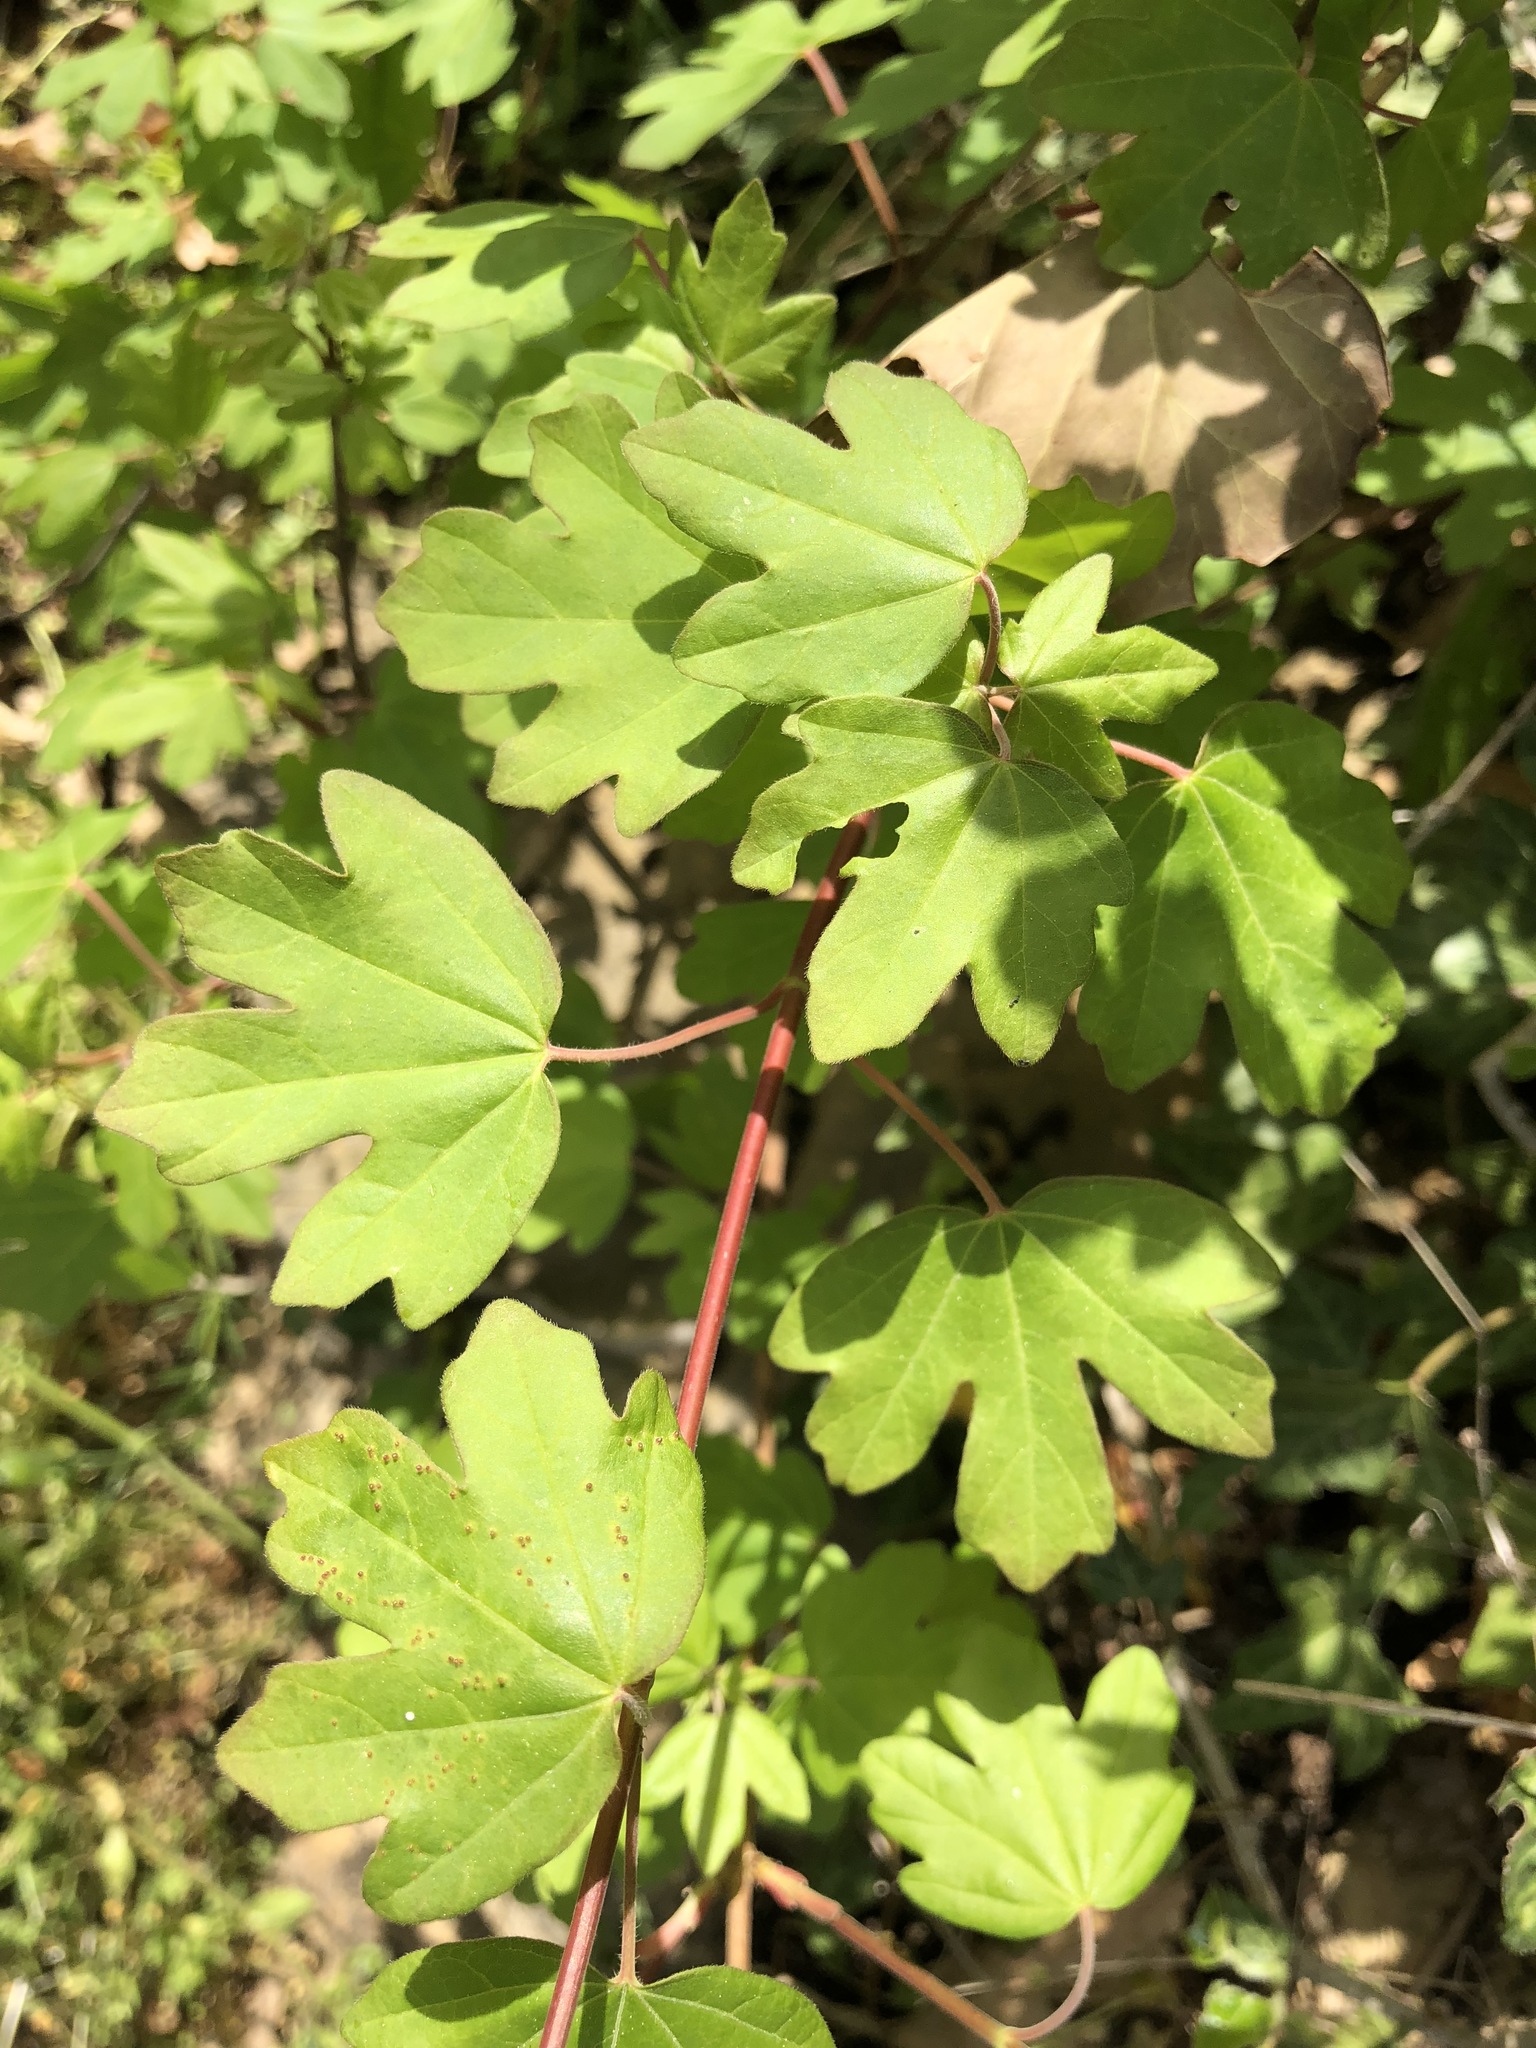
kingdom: Plantae
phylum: Tracheophyta
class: Magnoliopsida
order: Sapindales
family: Sapindaceae
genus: Acer
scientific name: Acer campestre
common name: Field maple
